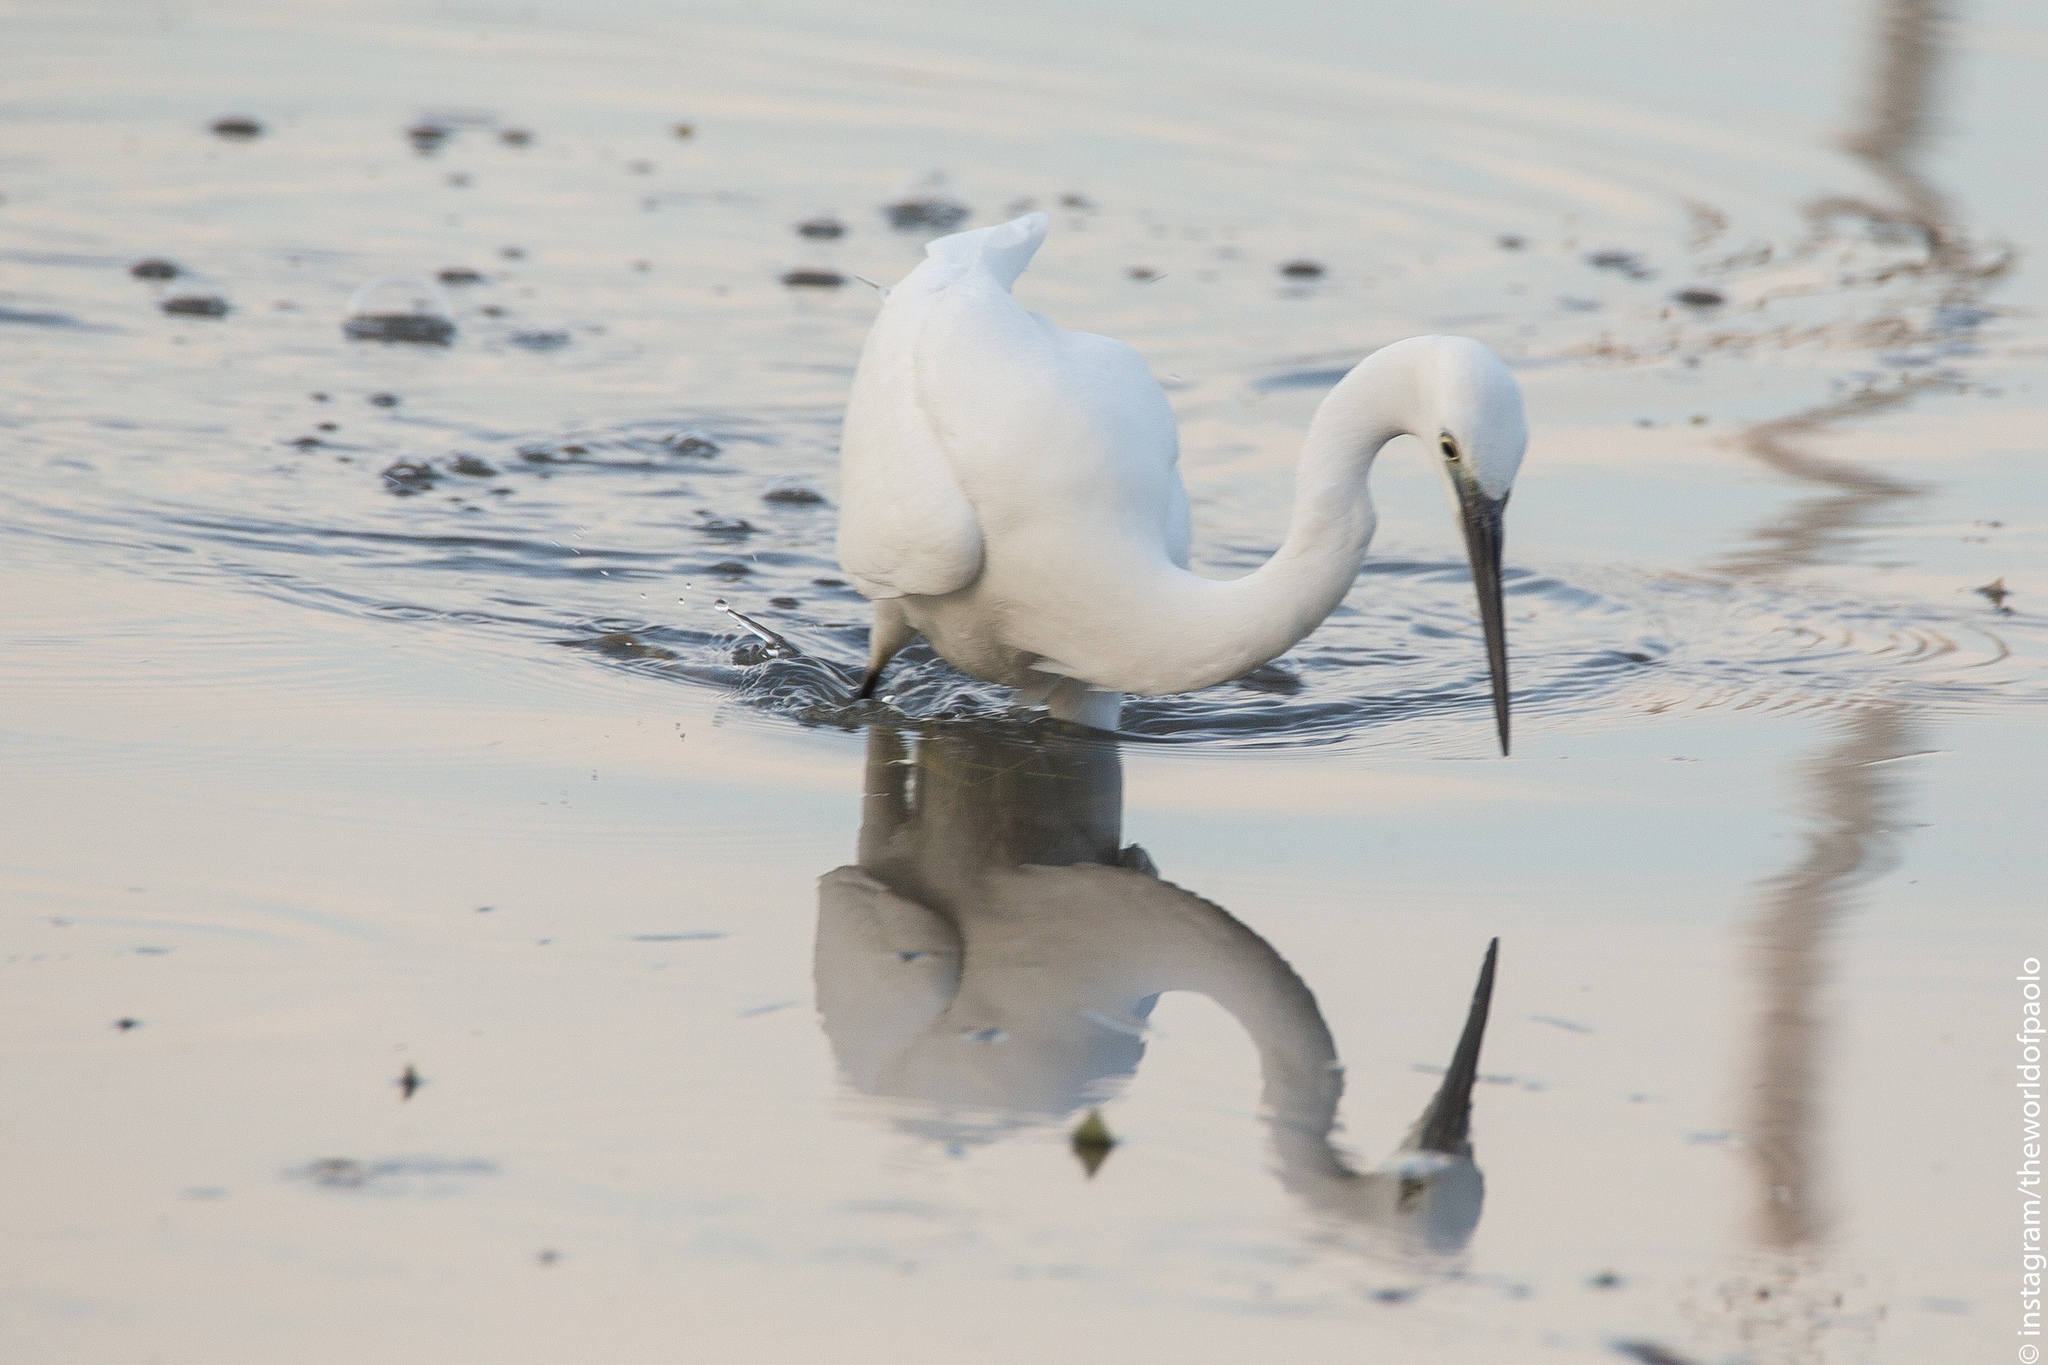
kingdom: Animalia
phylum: Chordata
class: Aves
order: Pelecaniformes
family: Ardeidae
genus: Egretta
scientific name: Egretta garzetta
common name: Little egret
